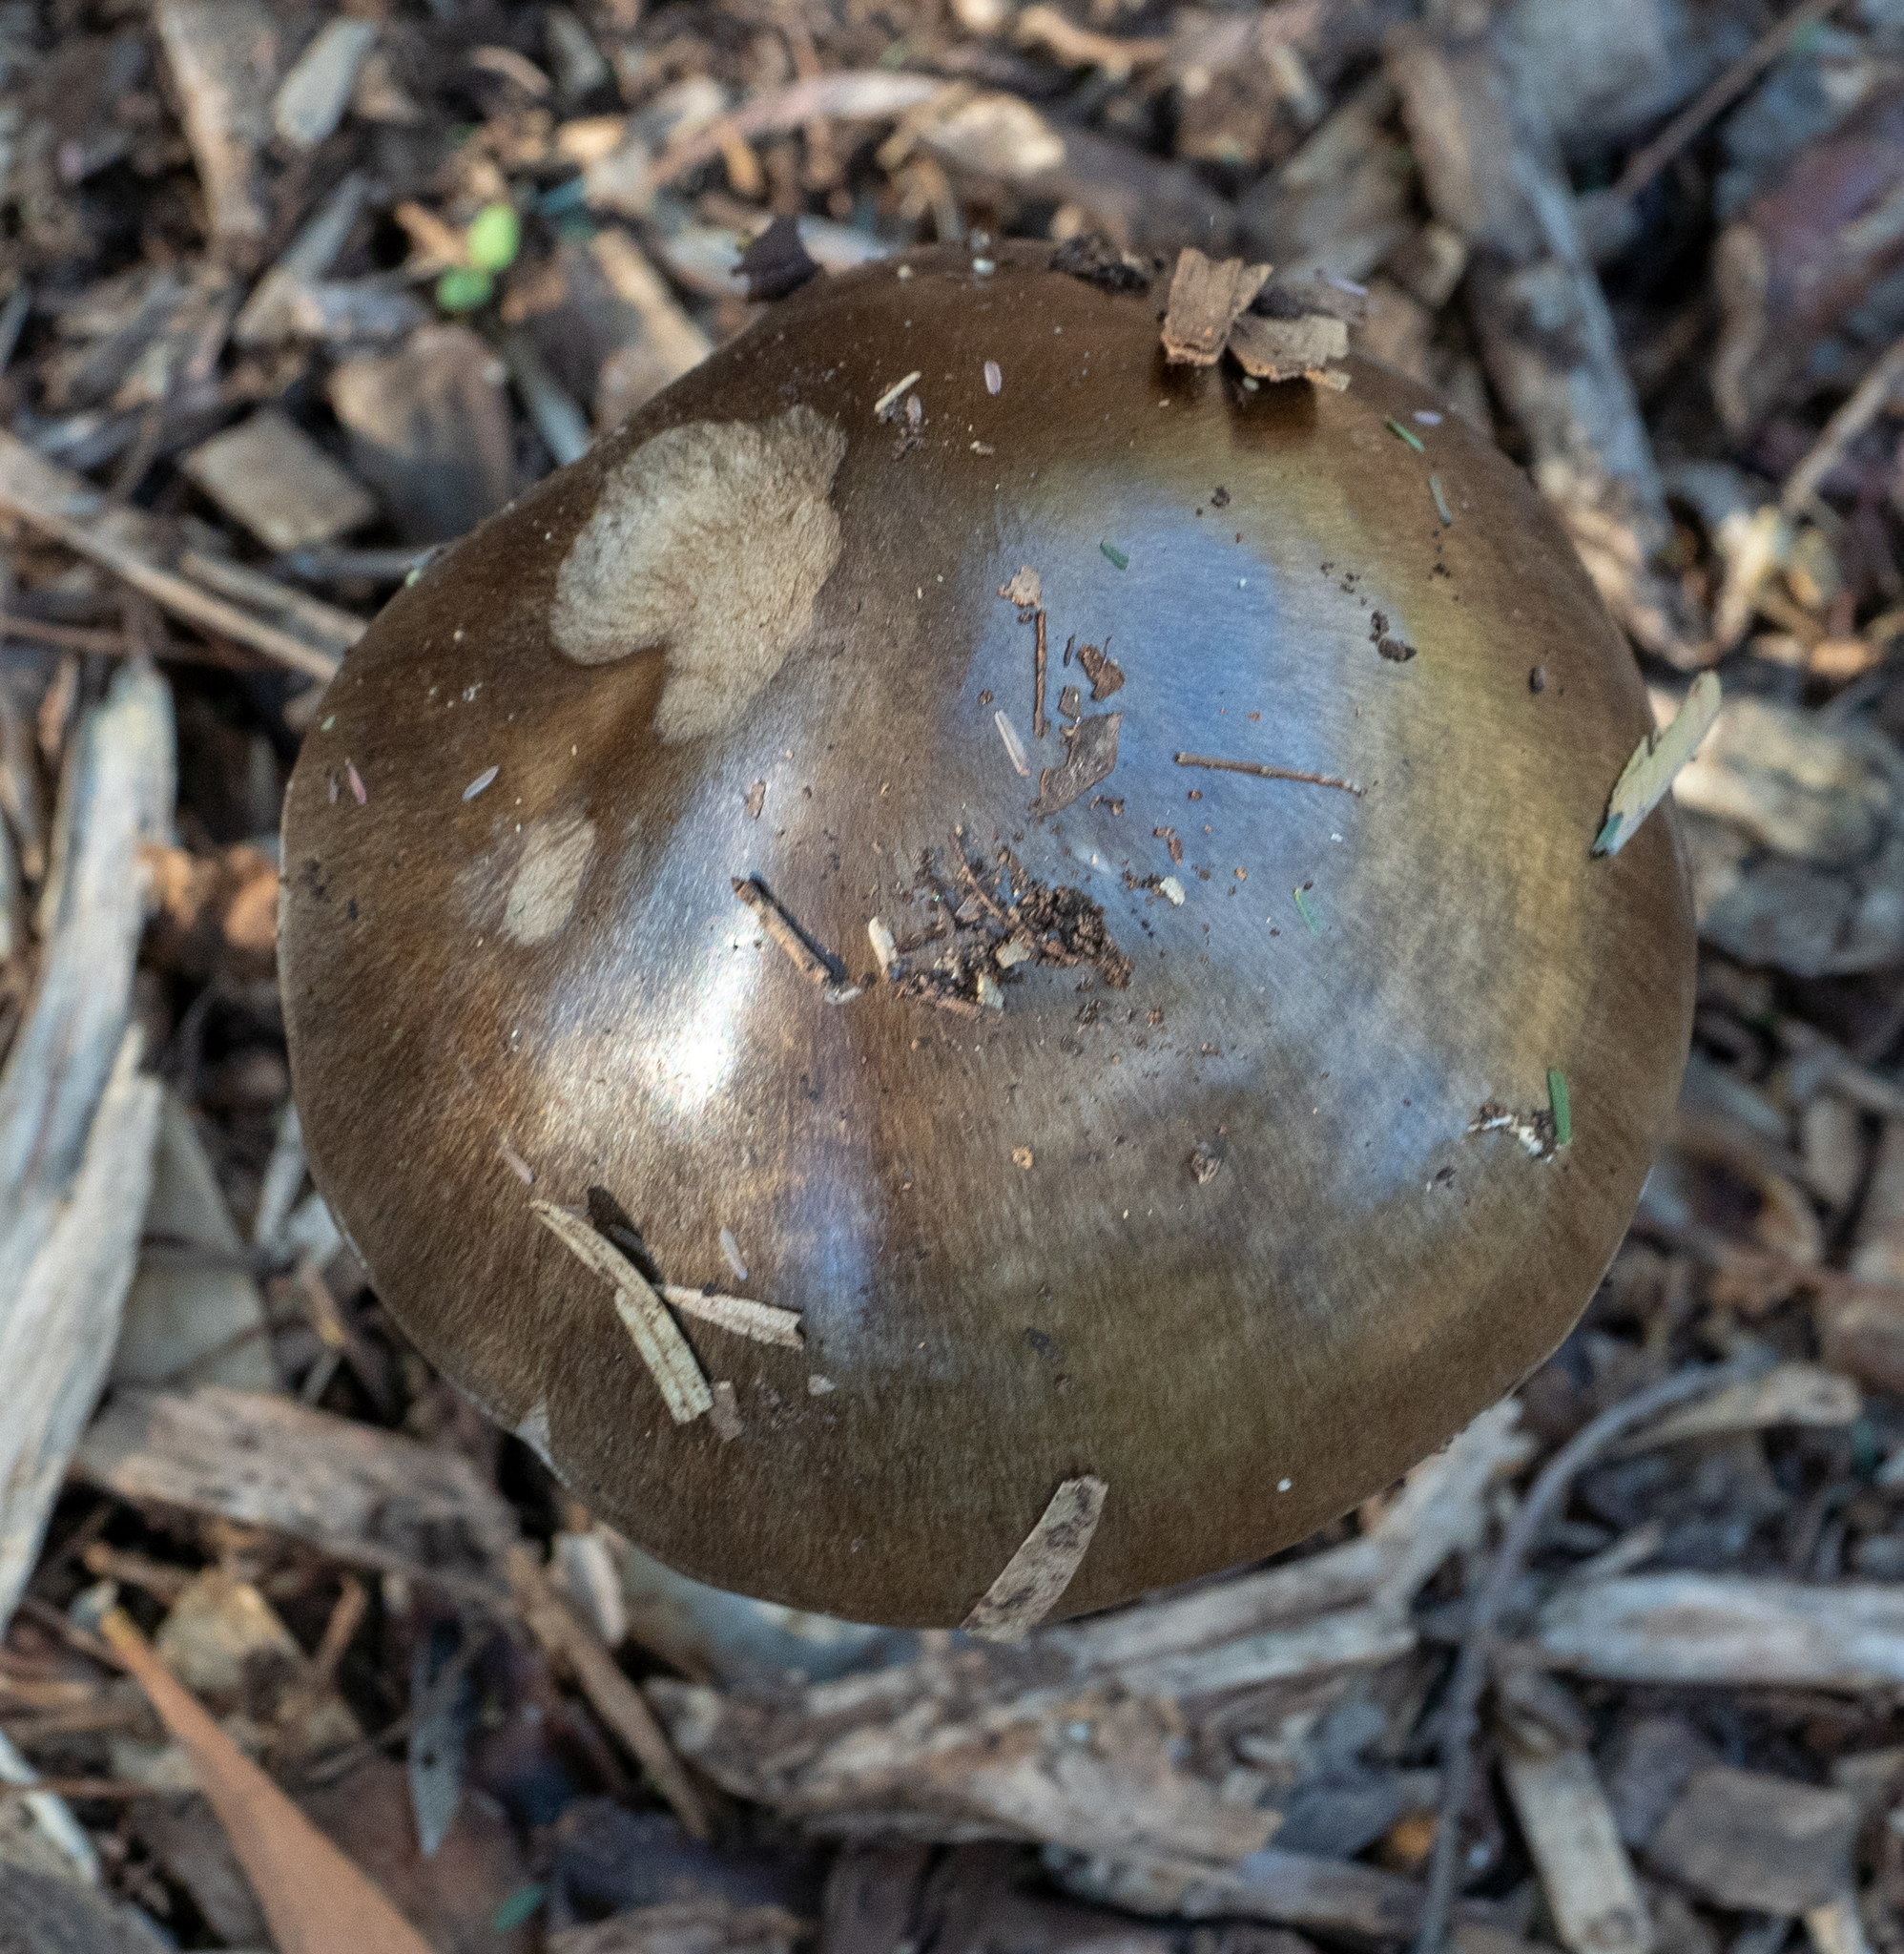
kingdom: Fungi
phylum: Basidiomycota
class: Agaricomycetes
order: Agaricales
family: Pluteaceae
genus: Volvopluteus
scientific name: Volvopluteus gloiocephalus
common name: Stubble rosegill
